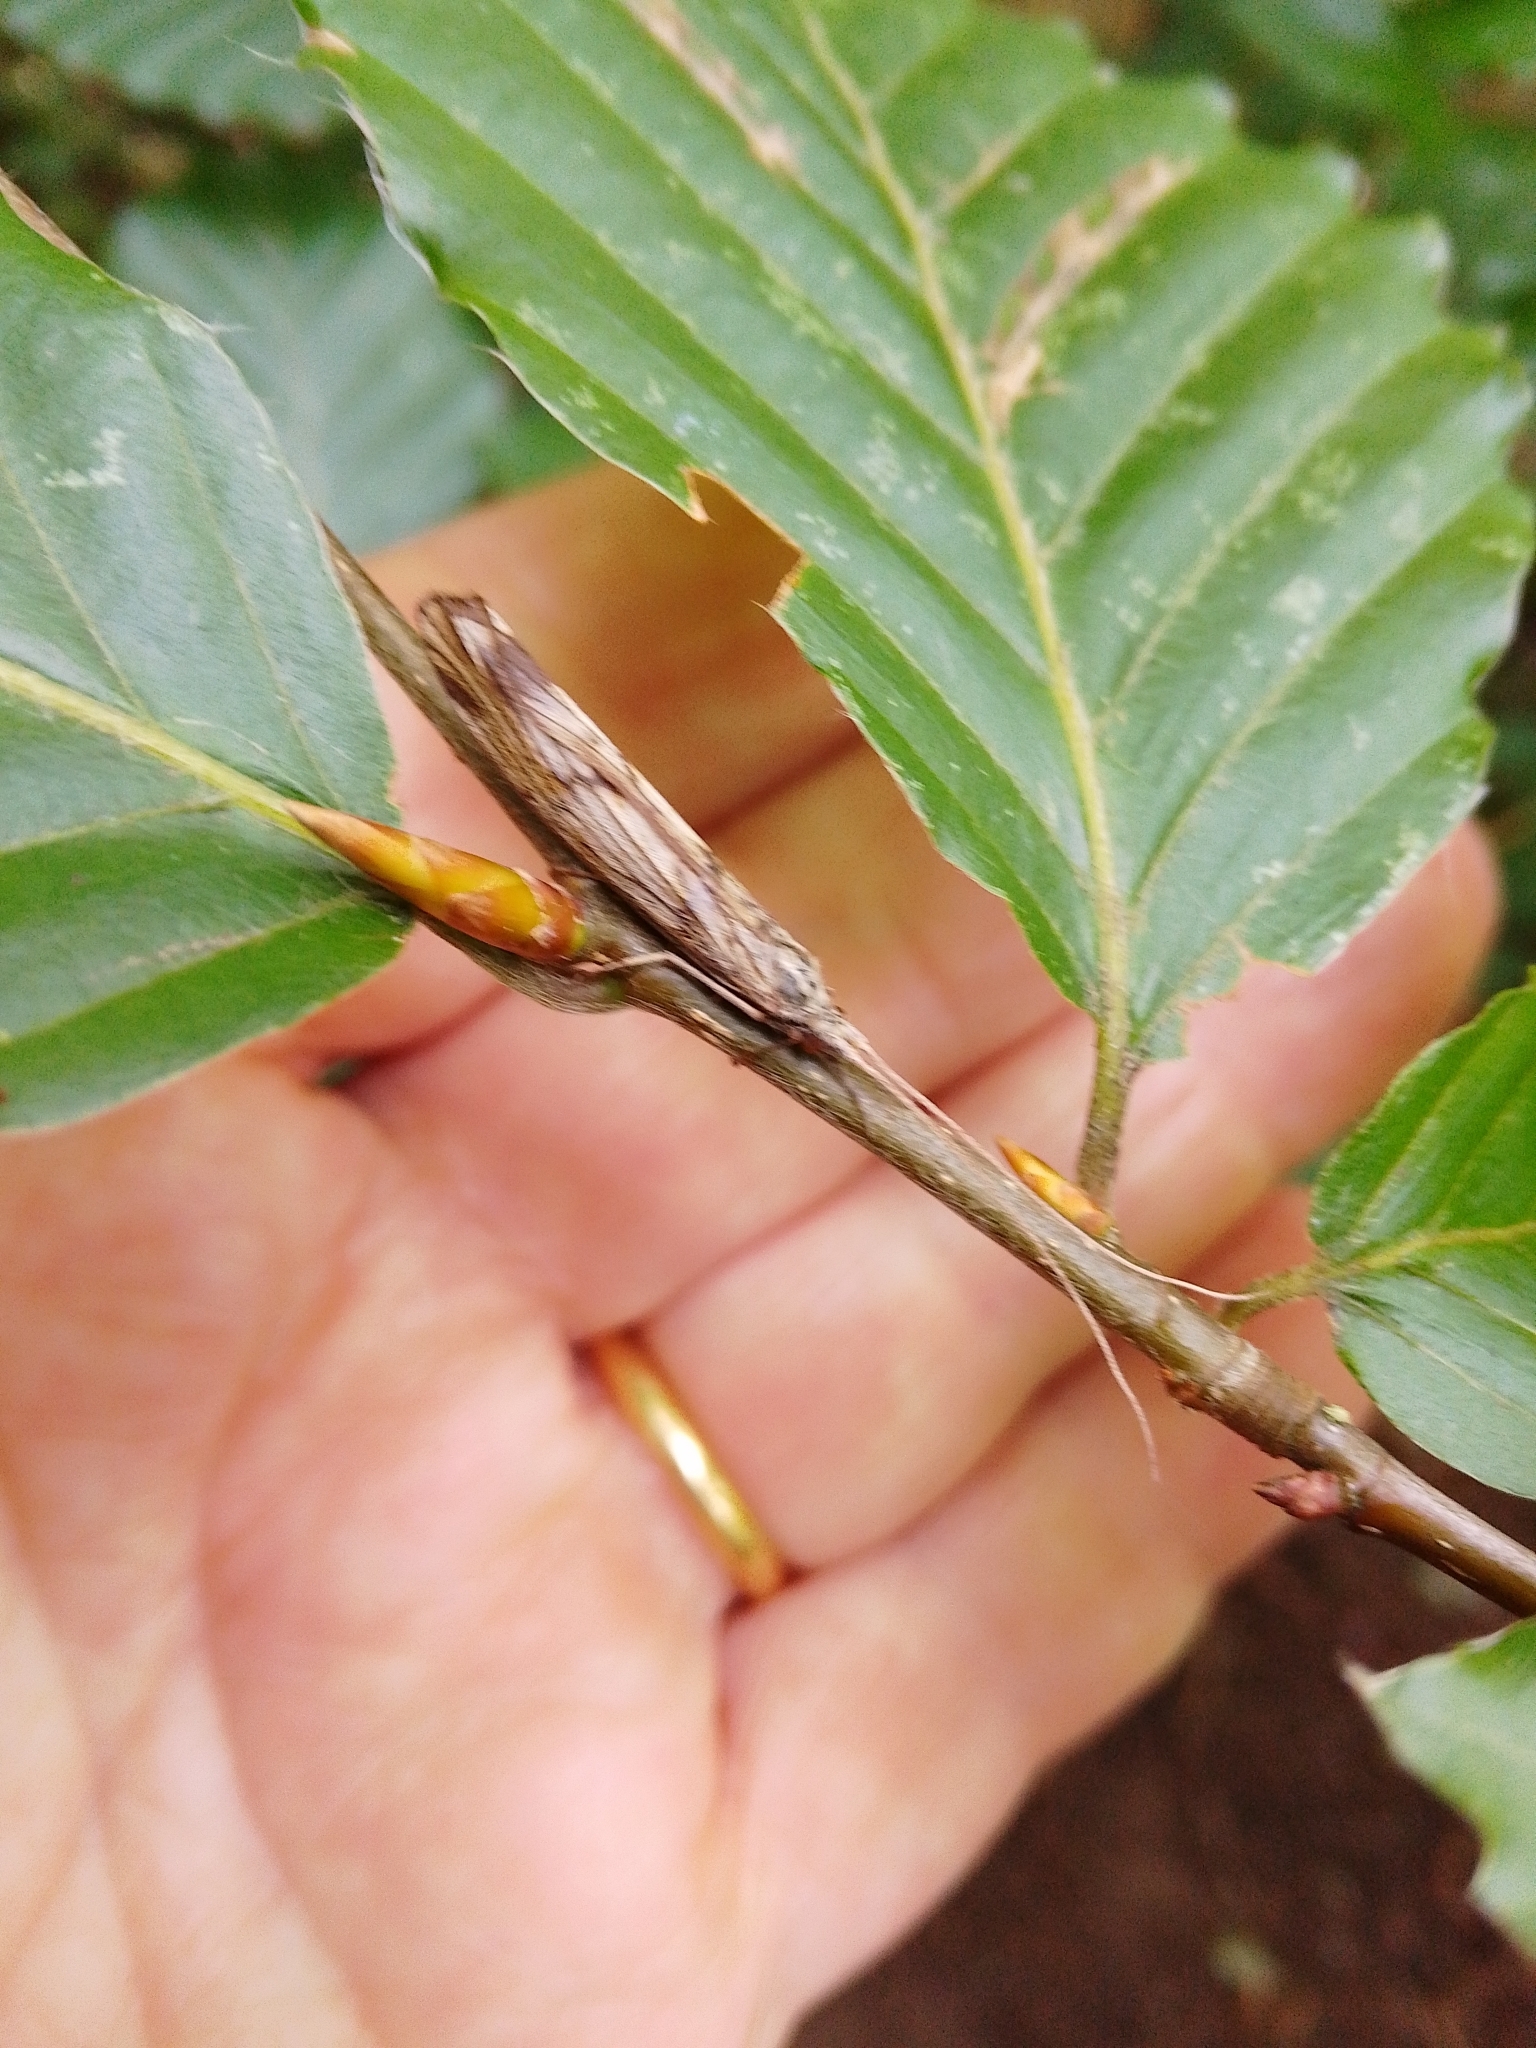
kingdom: Animalia
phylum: Arthropoda
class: Insecta
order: Trichoptera
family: Odontoceridae
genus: Odontocerum
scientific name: Odontocerum albicorne
